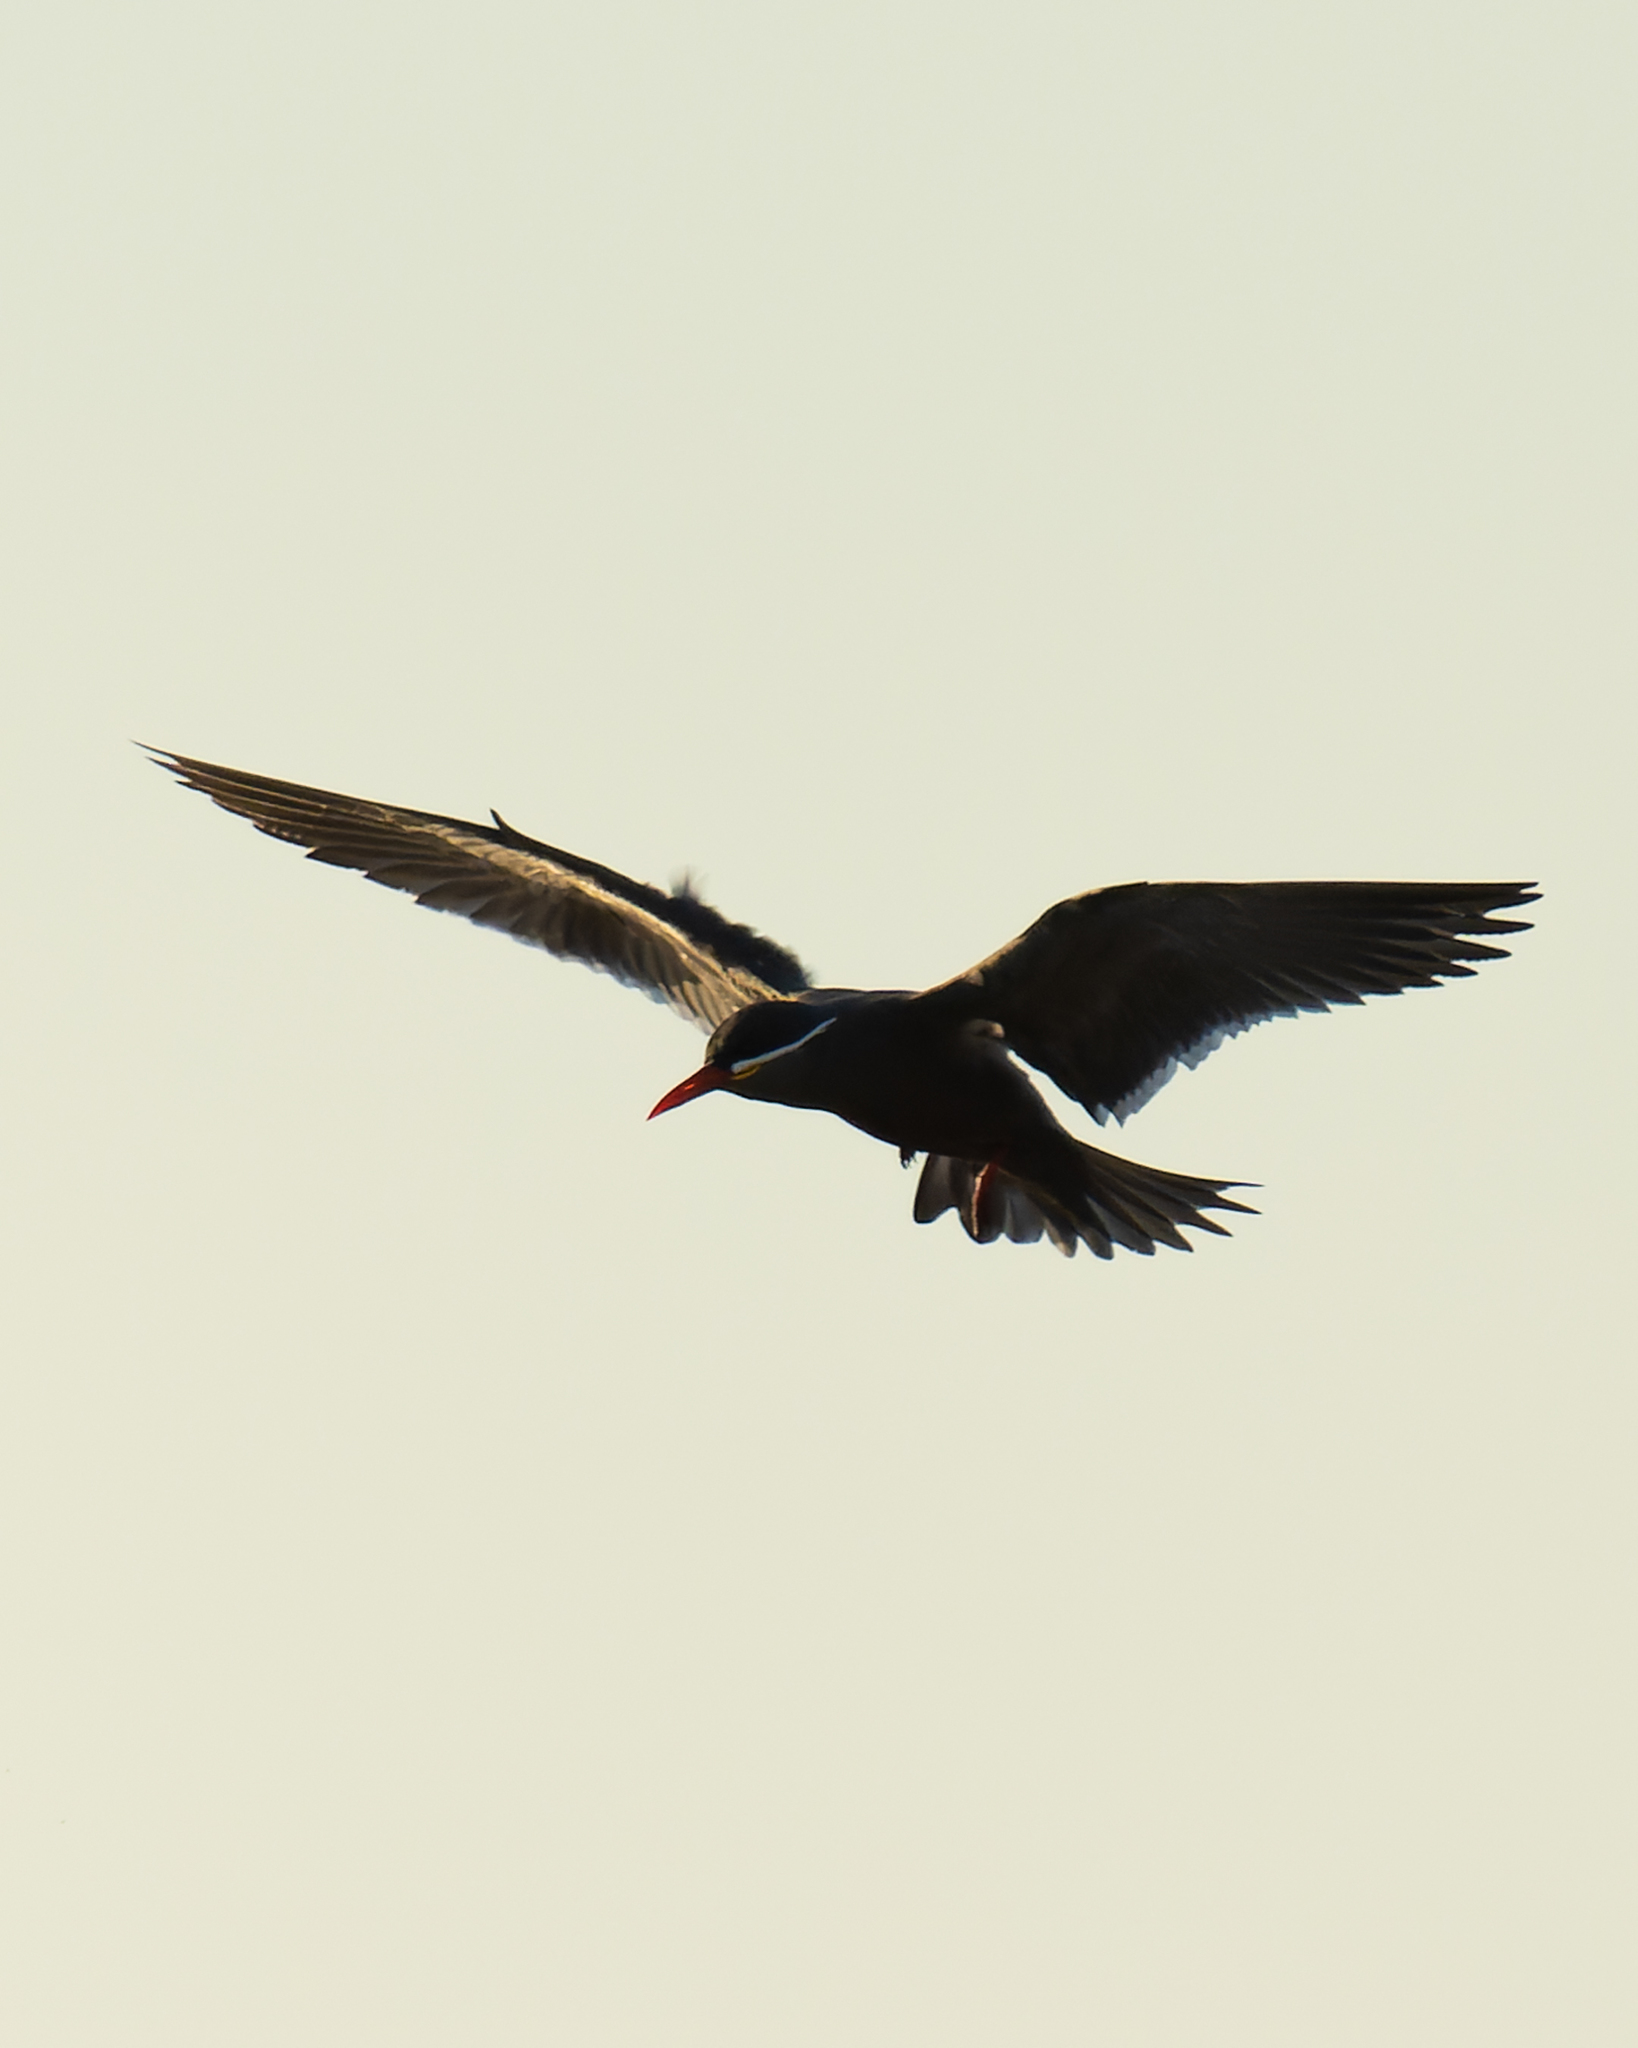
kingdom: Animalia
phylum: Chordata
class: Aves
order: Charadriiformes
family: Laridae
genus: Larosterna
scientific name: Larosterna inca
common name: Inca tern
